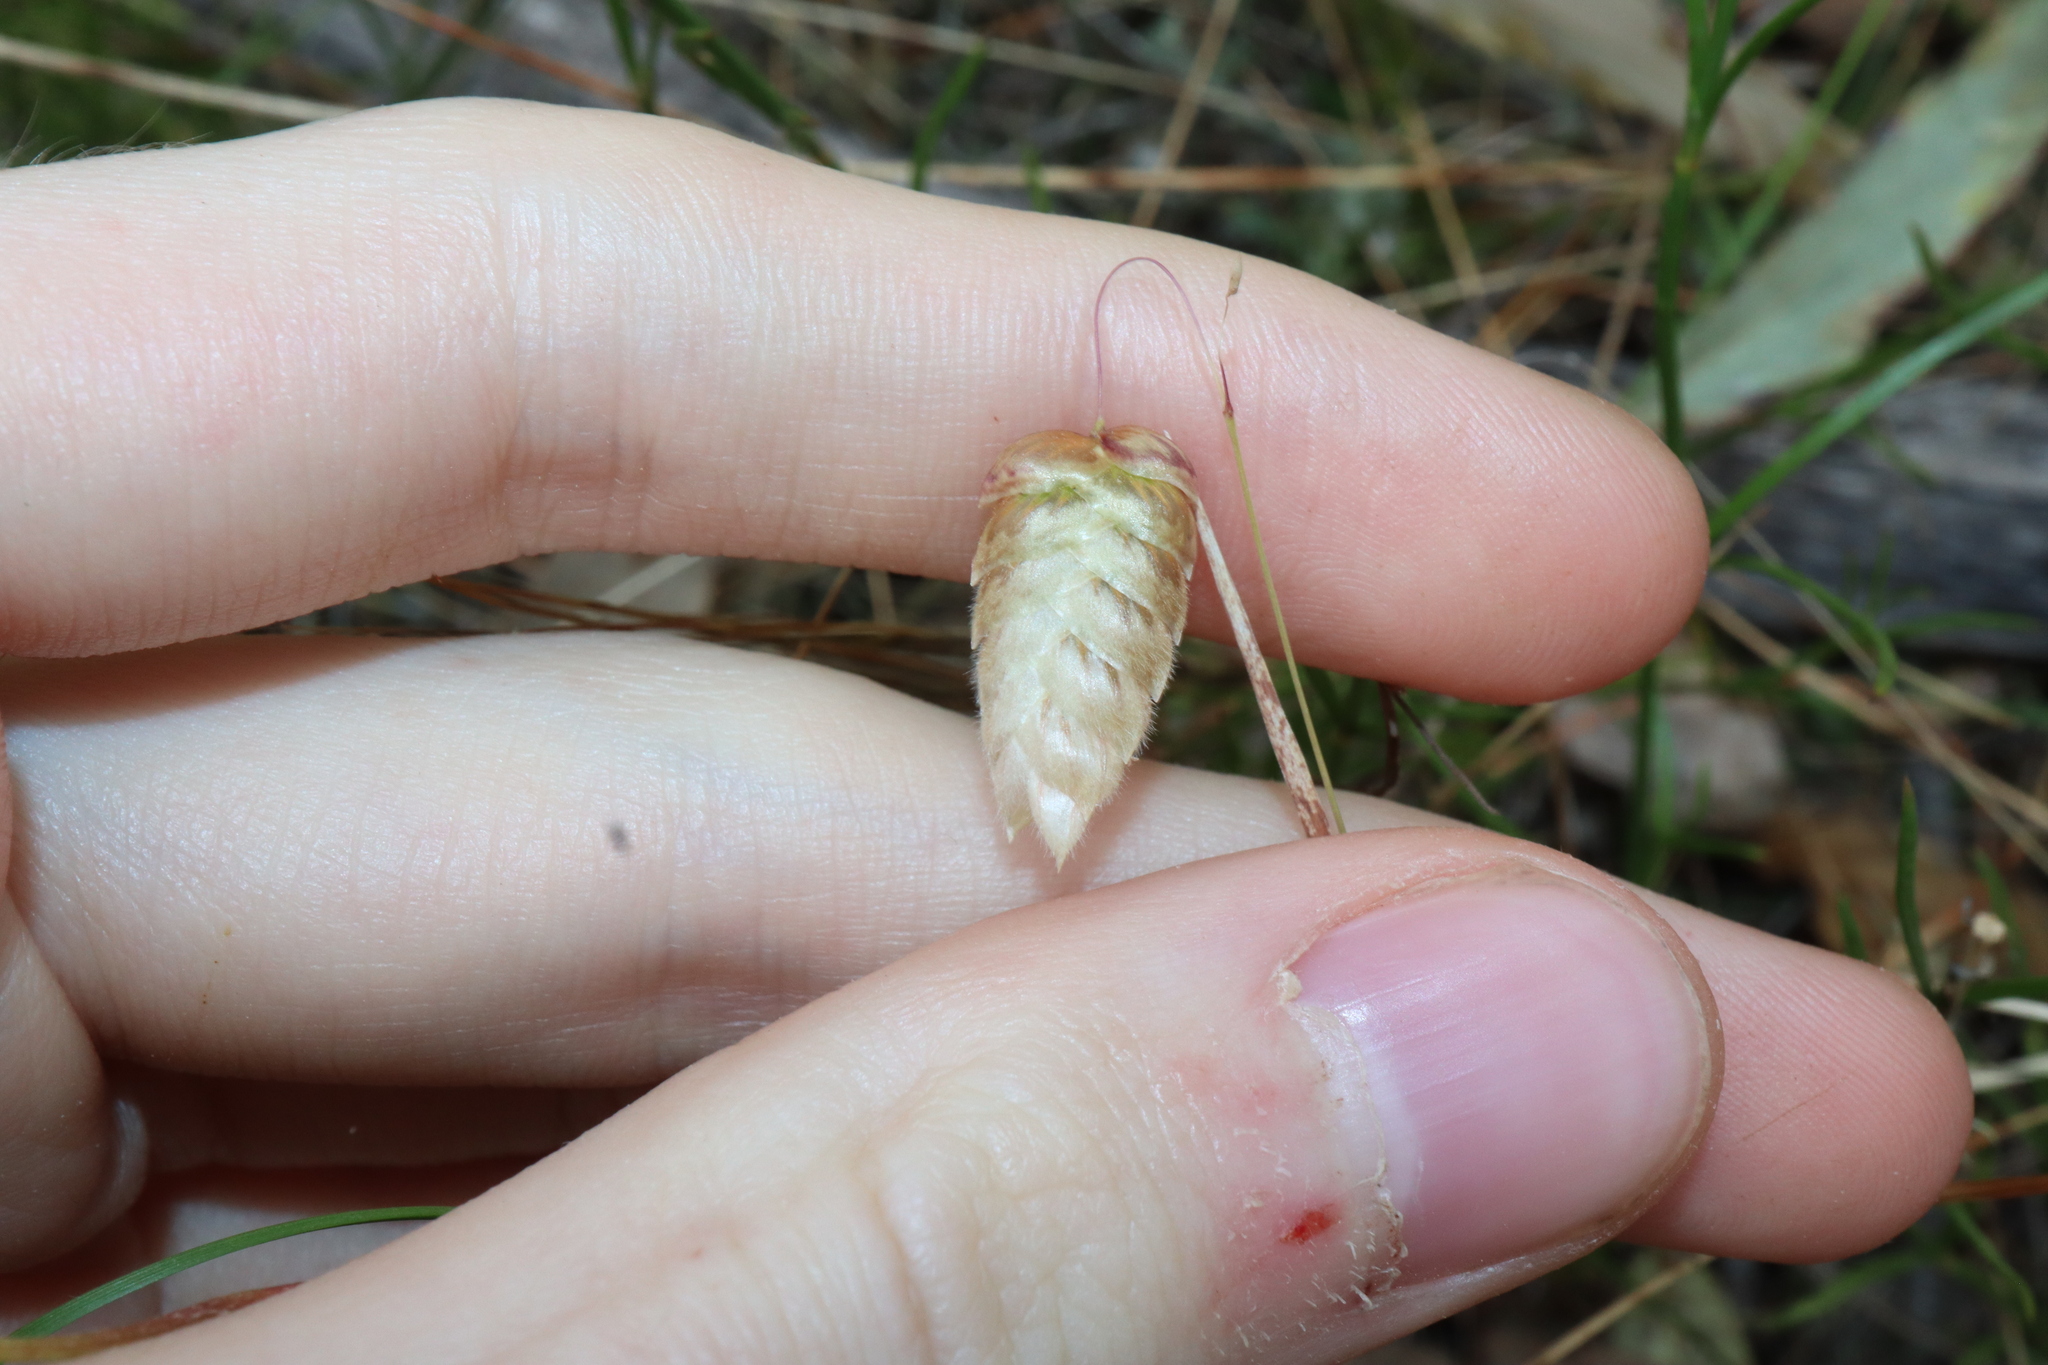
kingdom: Plantae
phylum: Tracheophyta
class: Liliopsida
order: Poales
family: Poaceae
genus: Briza
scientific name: Briza maxima
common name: Big quakinggrass
